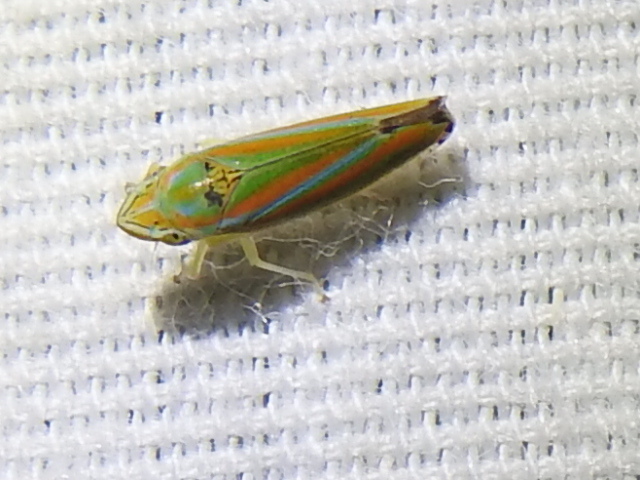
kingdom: Animalia
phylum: Arthropoda
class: Insecta
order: Hemiptera
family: Cicadellidae
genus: Graphocephala
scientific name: Graphocephala versuta
